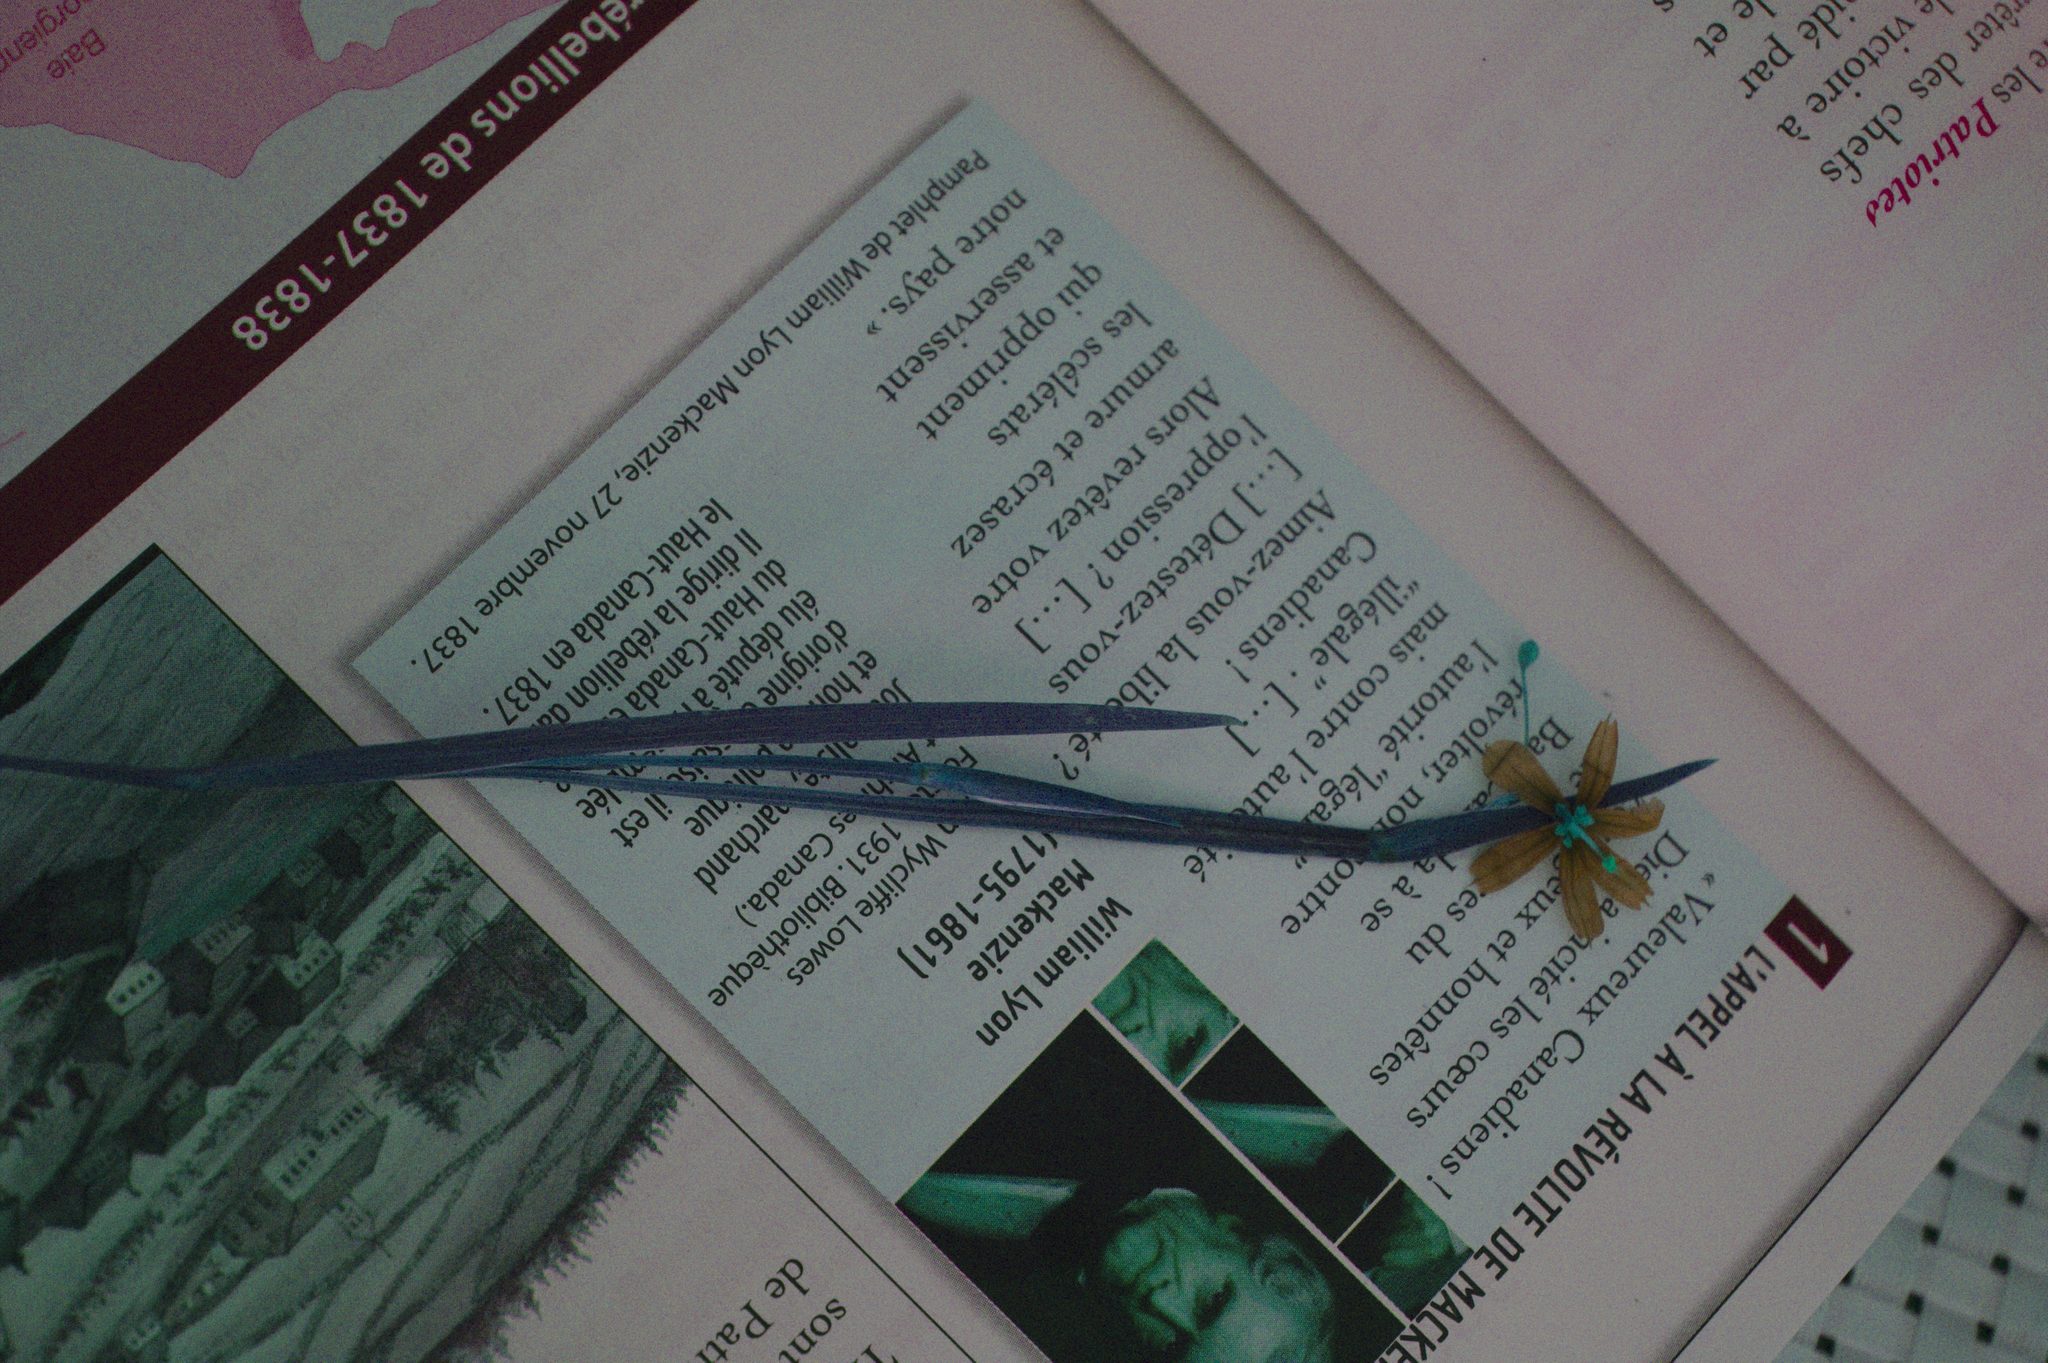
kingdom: Plantae
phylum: Tracheophyta
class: Liliopsida
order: Asparagales
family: Iridaceae
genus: Sisyrinchium
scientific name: Sisyrinchium montanum
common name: American blue-eyed-grass
